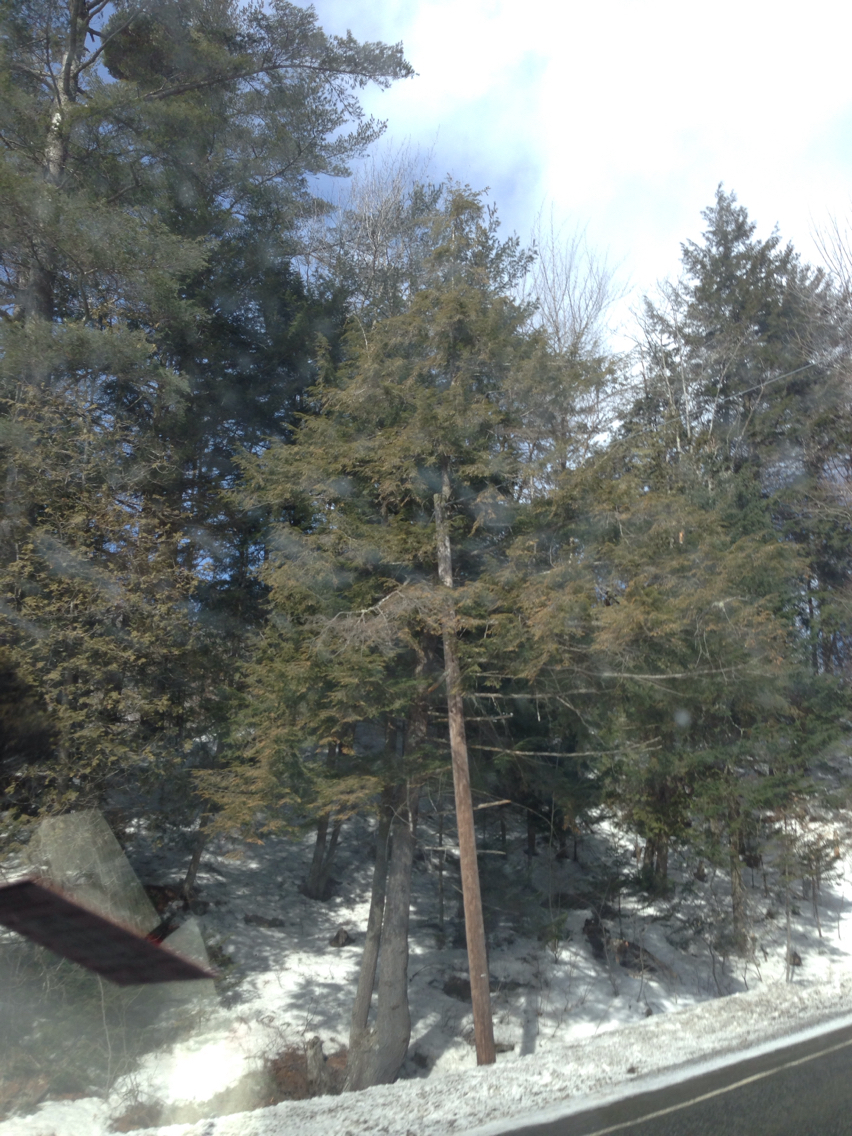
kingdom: Plantae
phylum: Tracheophyta
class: Pinopsida
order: Pinales
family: Pinaceae
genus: Tsuga
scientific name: Tsuga canadensis
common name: Eastern hemlock
